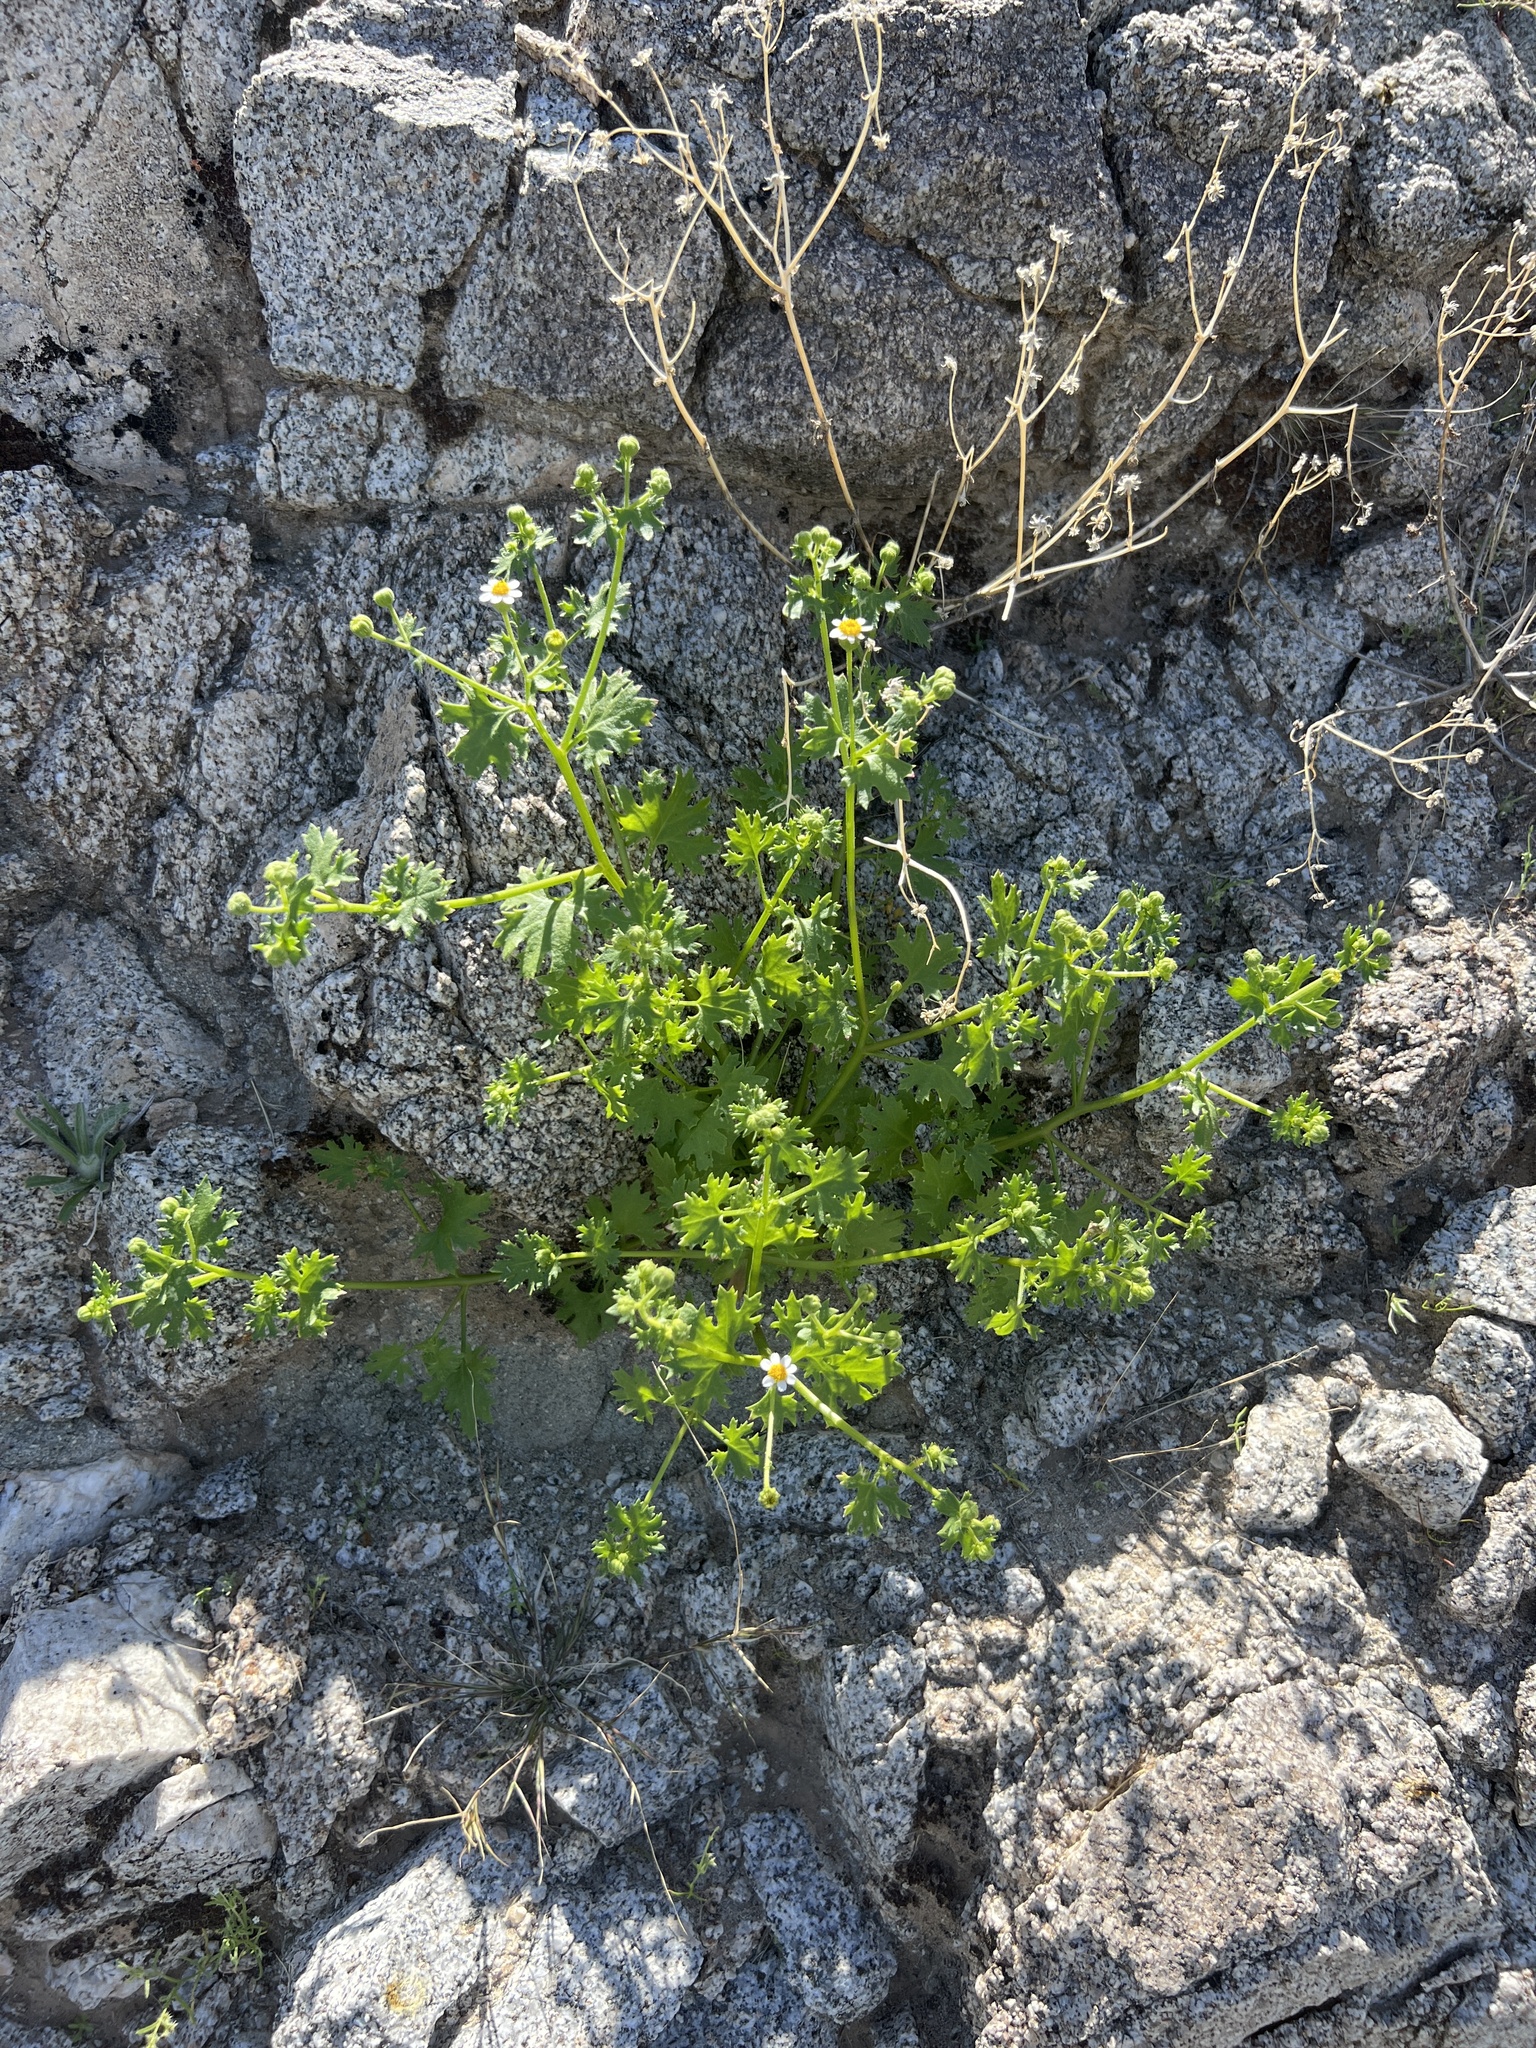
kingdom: Plantae
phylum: Tracheophyta
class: Magnoliopsida
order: Asterales
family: Asteraceae
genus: Laphamia
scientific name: Laphamia emoryi
